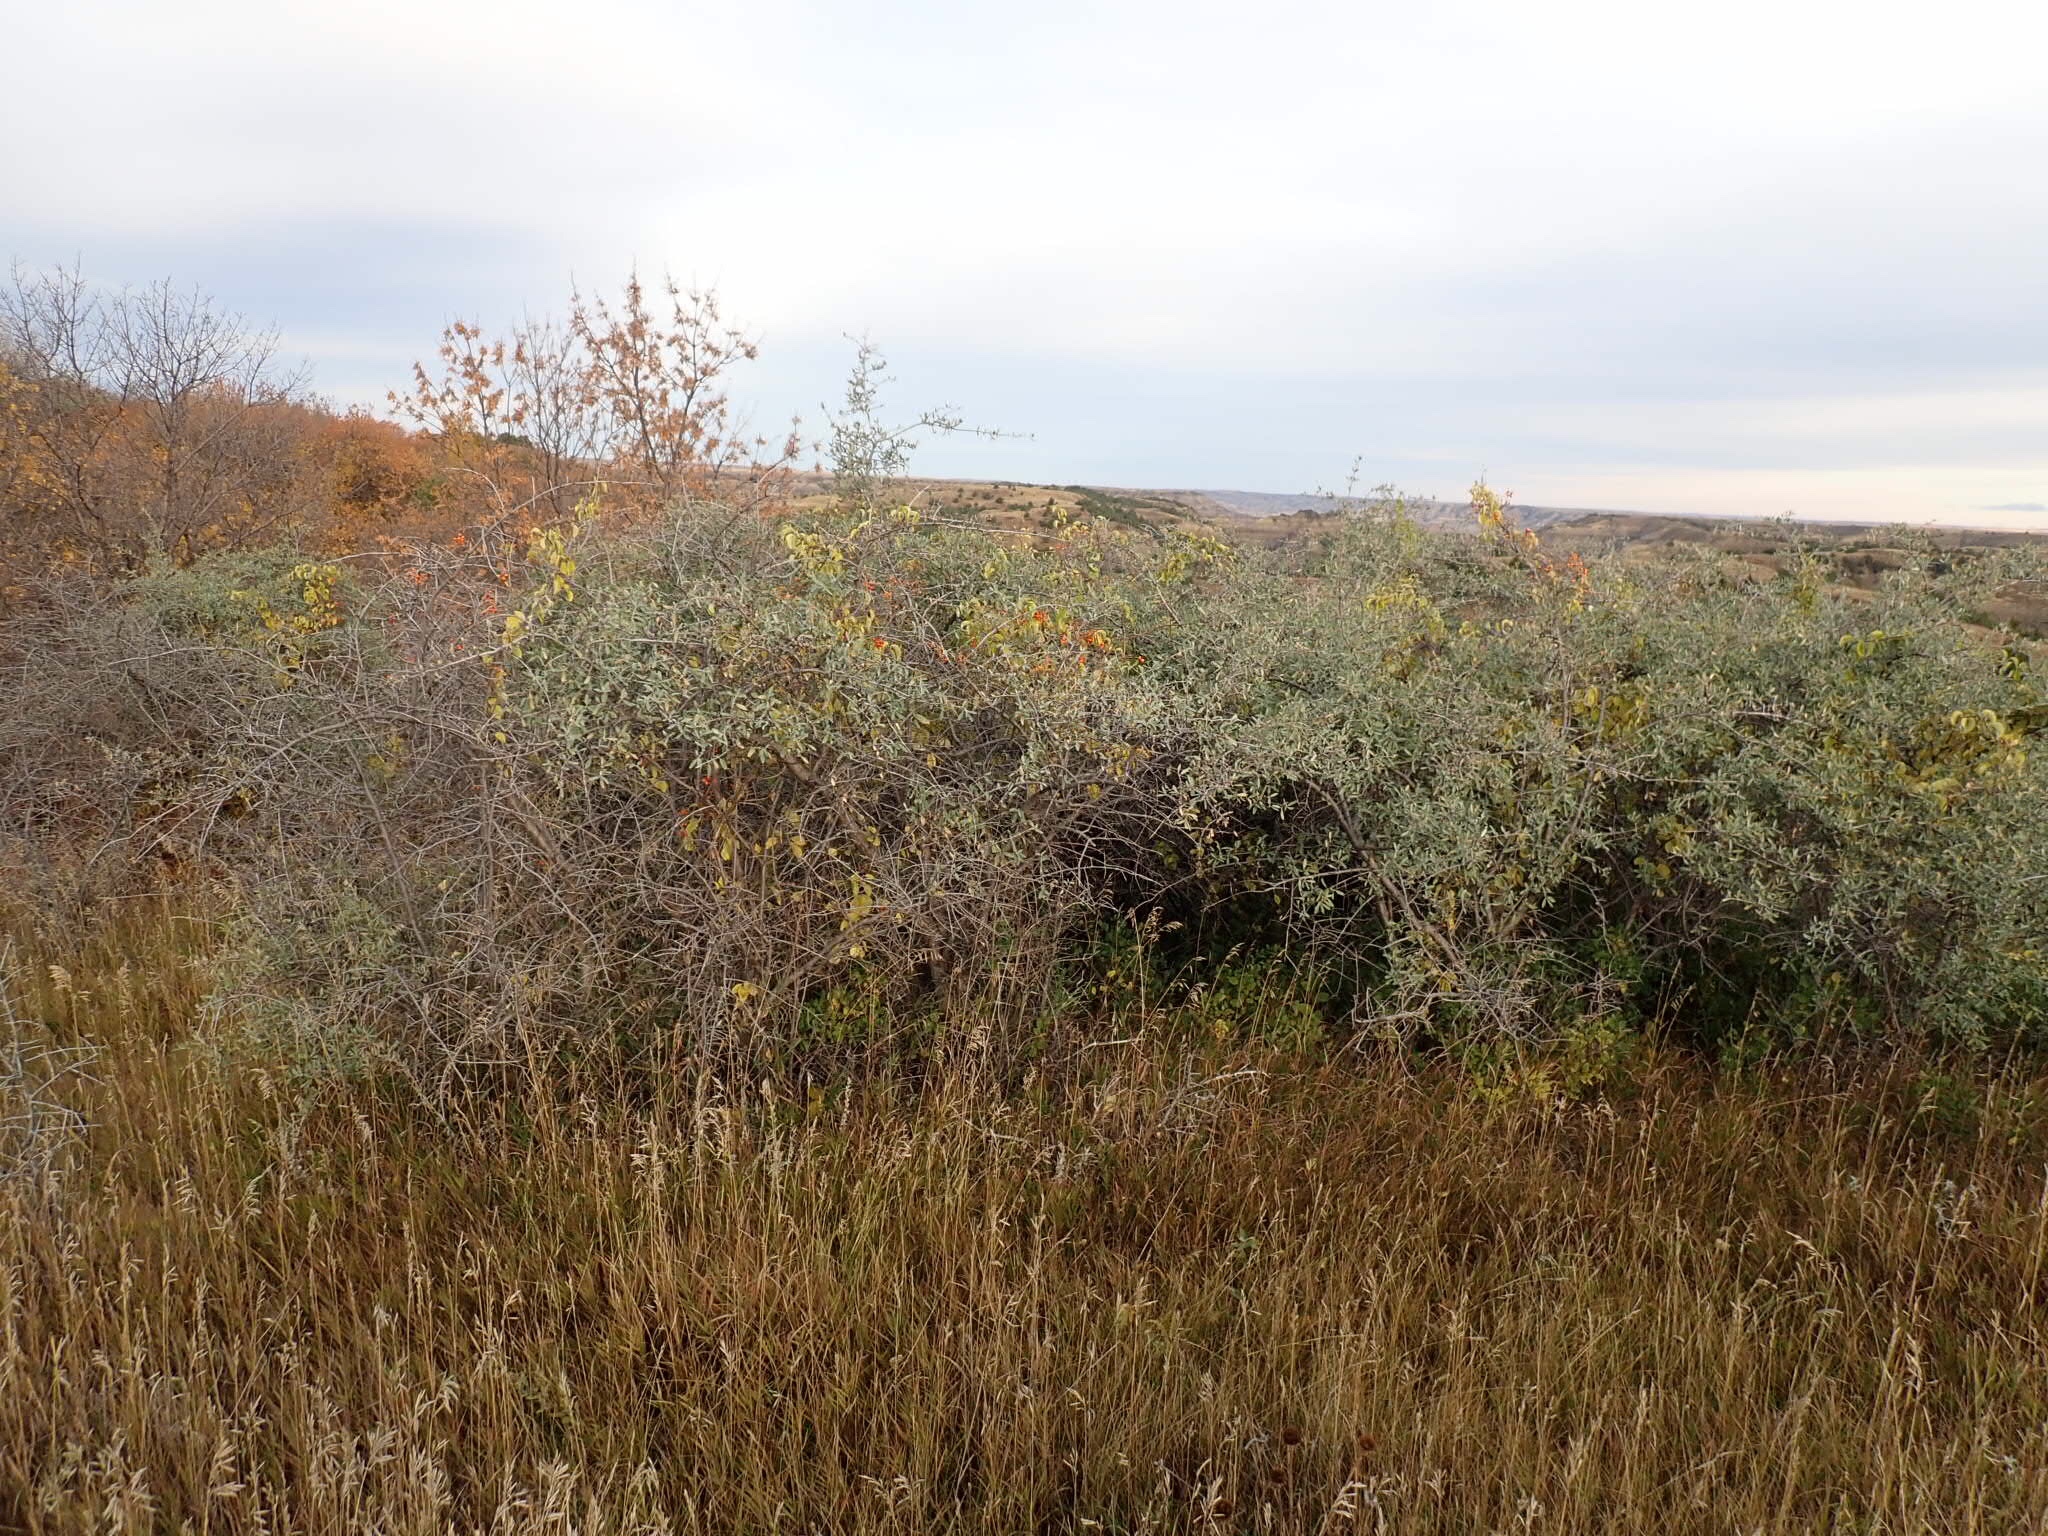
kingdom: Plantae
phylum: Tracheophyta
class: Magnoliopsida
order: Celastrales
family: Celastraceae
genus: Celastrus
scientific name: Celastrus scandens
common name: American bittersweet
